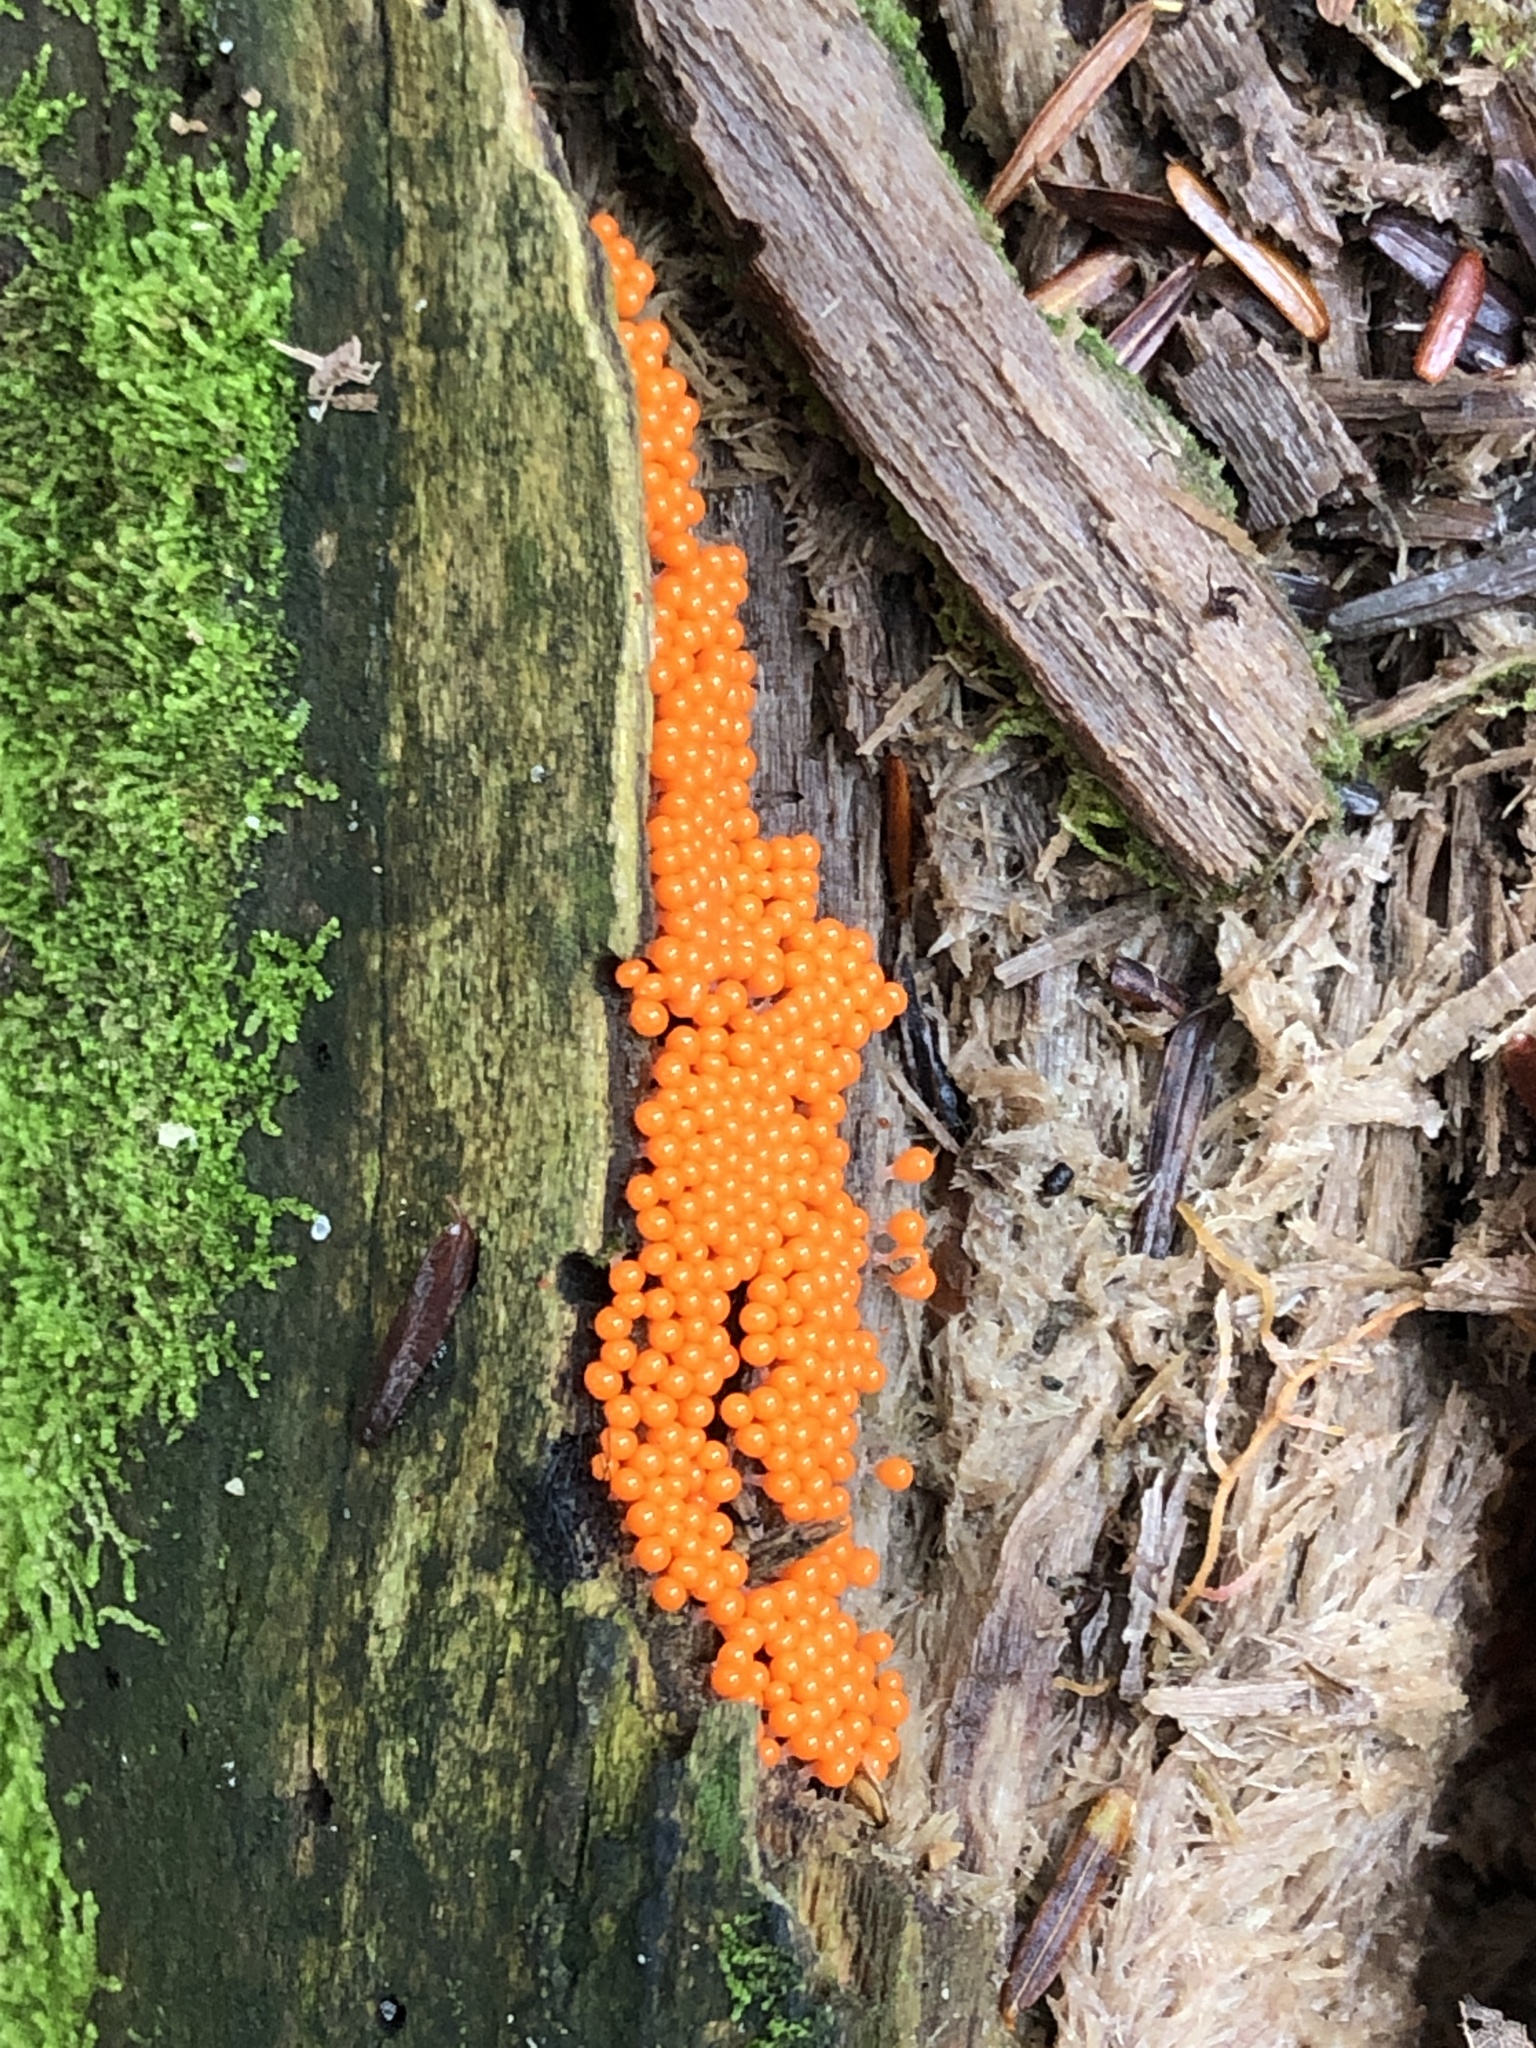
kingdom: Protozoa
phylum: Mycetozoa
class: Myxomycetes
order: Trichiales
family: Arcyriaceae
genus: Hemitrichia
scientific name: Hemitrichia decipiens
